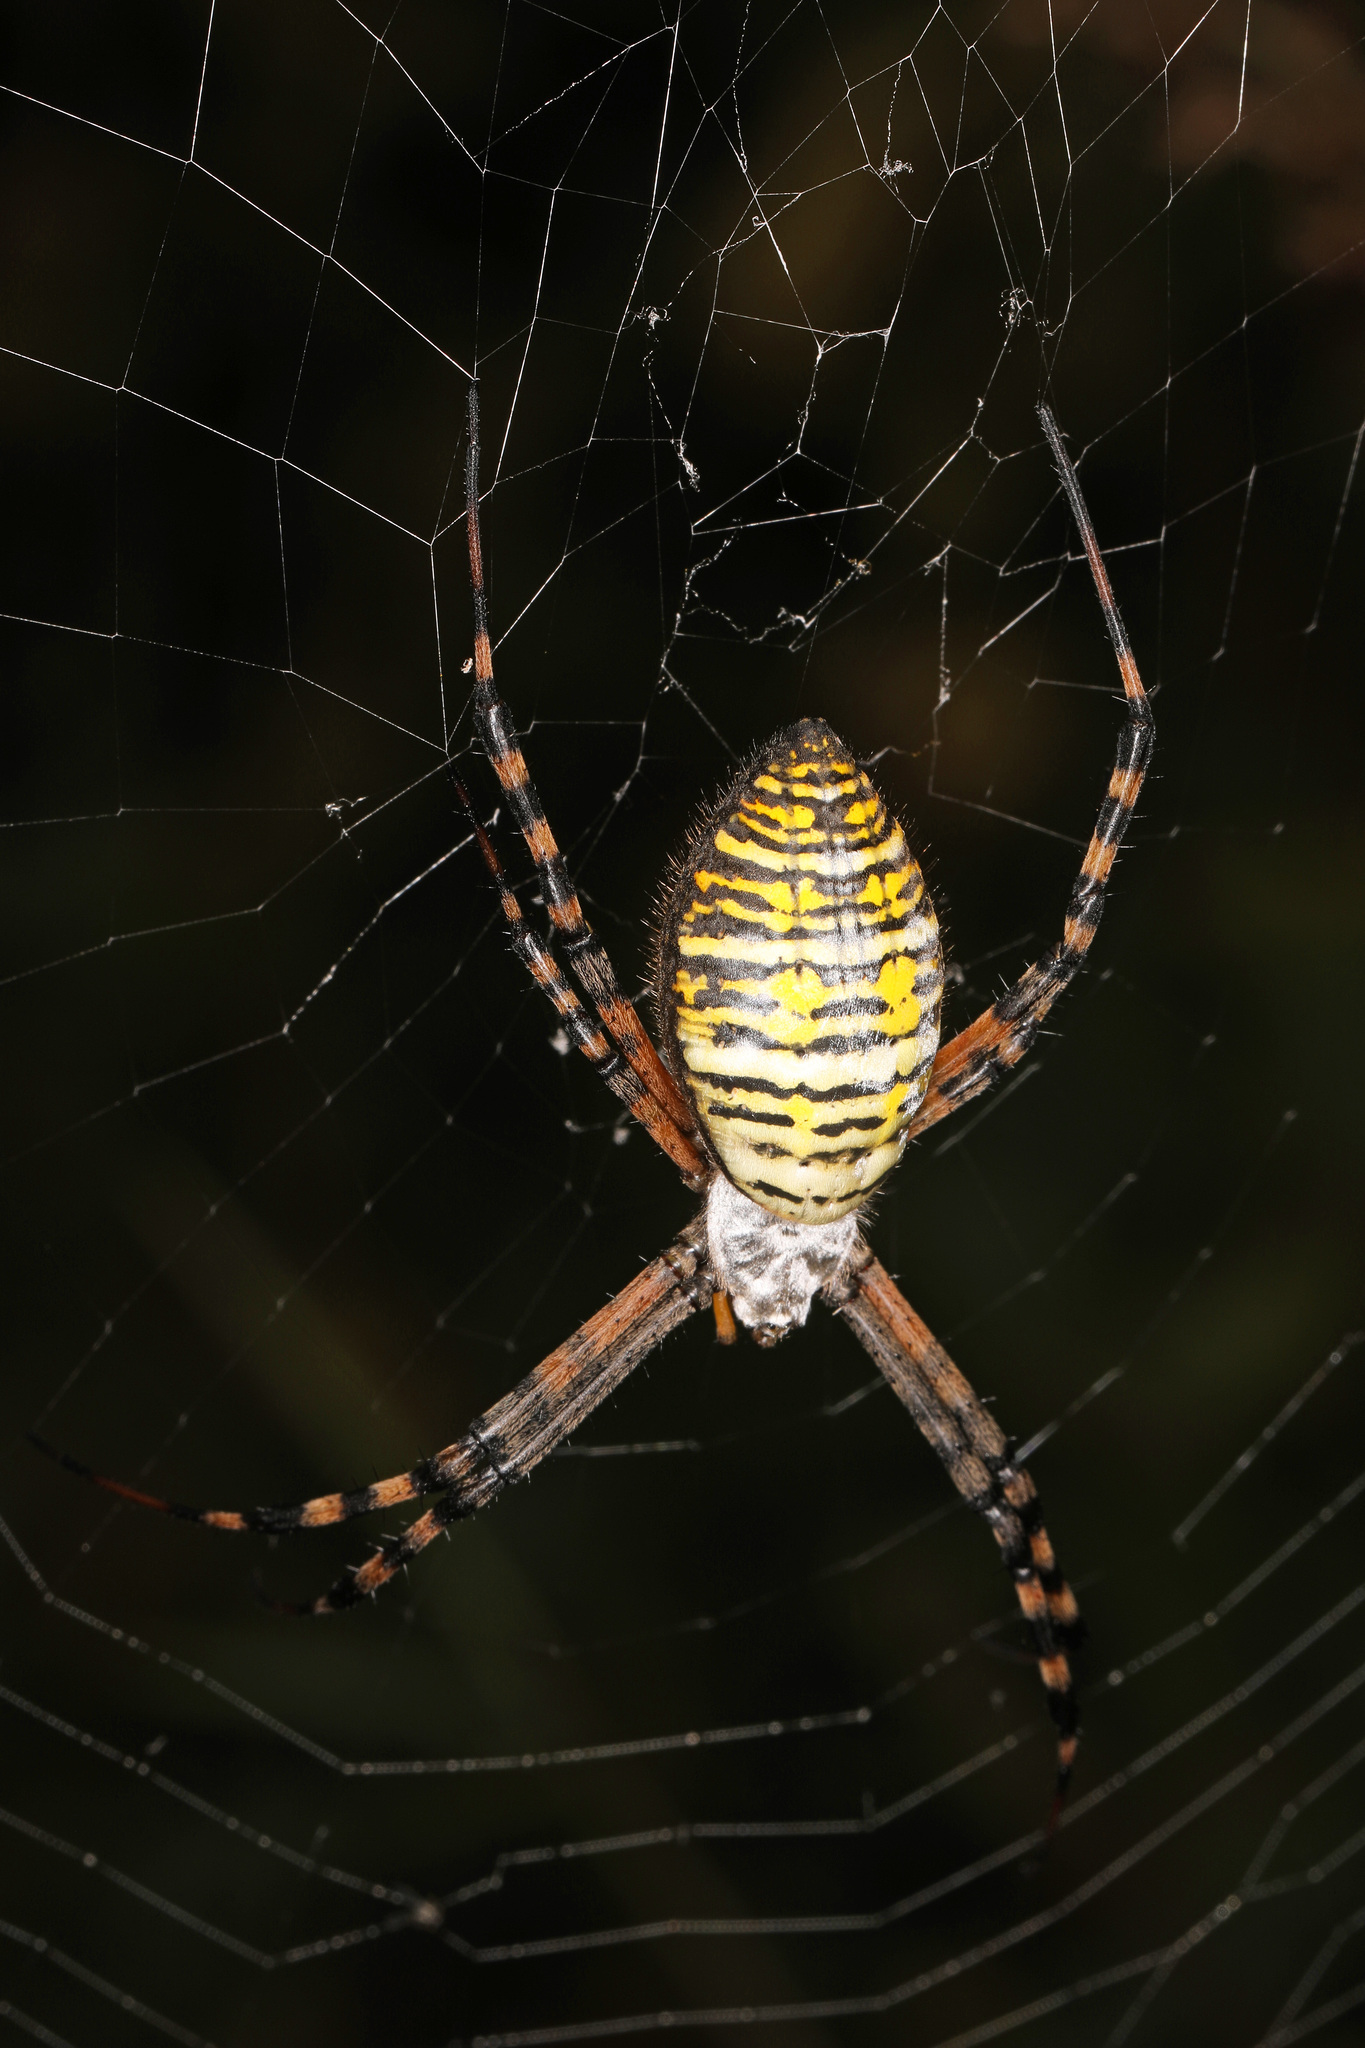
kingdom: Animalia
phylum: Arthropoda
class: Arachnida
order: Araneae
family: Araneidae
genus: Argiope
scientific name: Argiope trifasciata
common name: Banded garden spider
